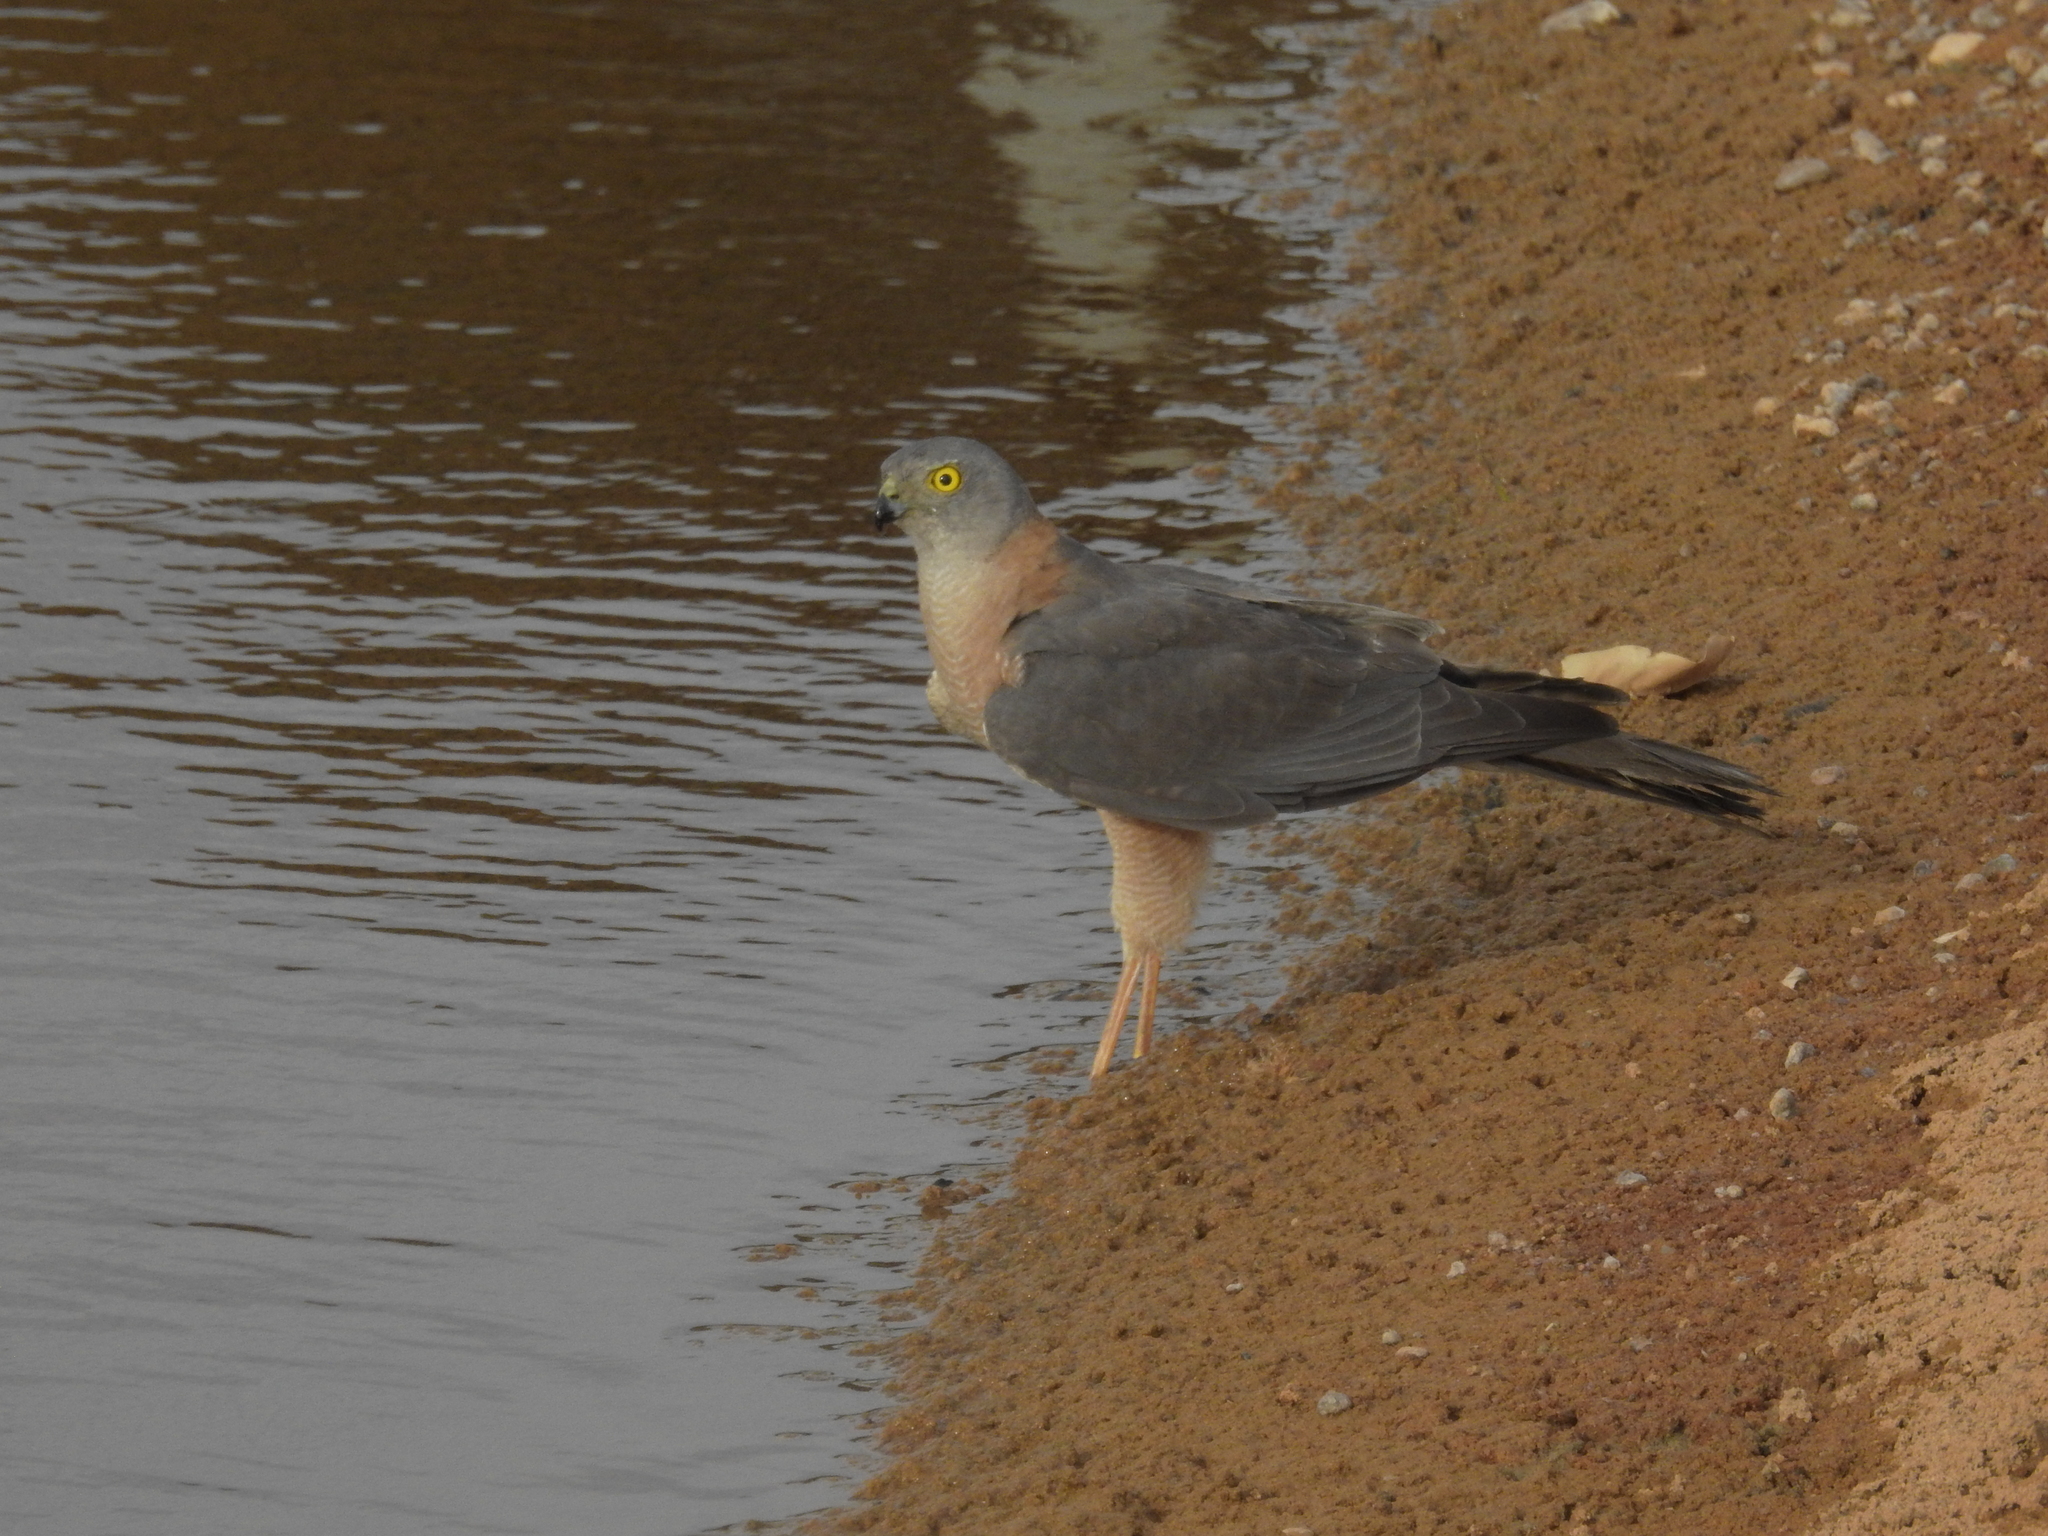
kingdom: Animalia
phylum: Chordata
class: Aves
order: Accipitriformes
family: Accipitridae
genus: Accipiter
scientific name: Accipiter cirrocephalus
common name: Collared sparrowhawk
